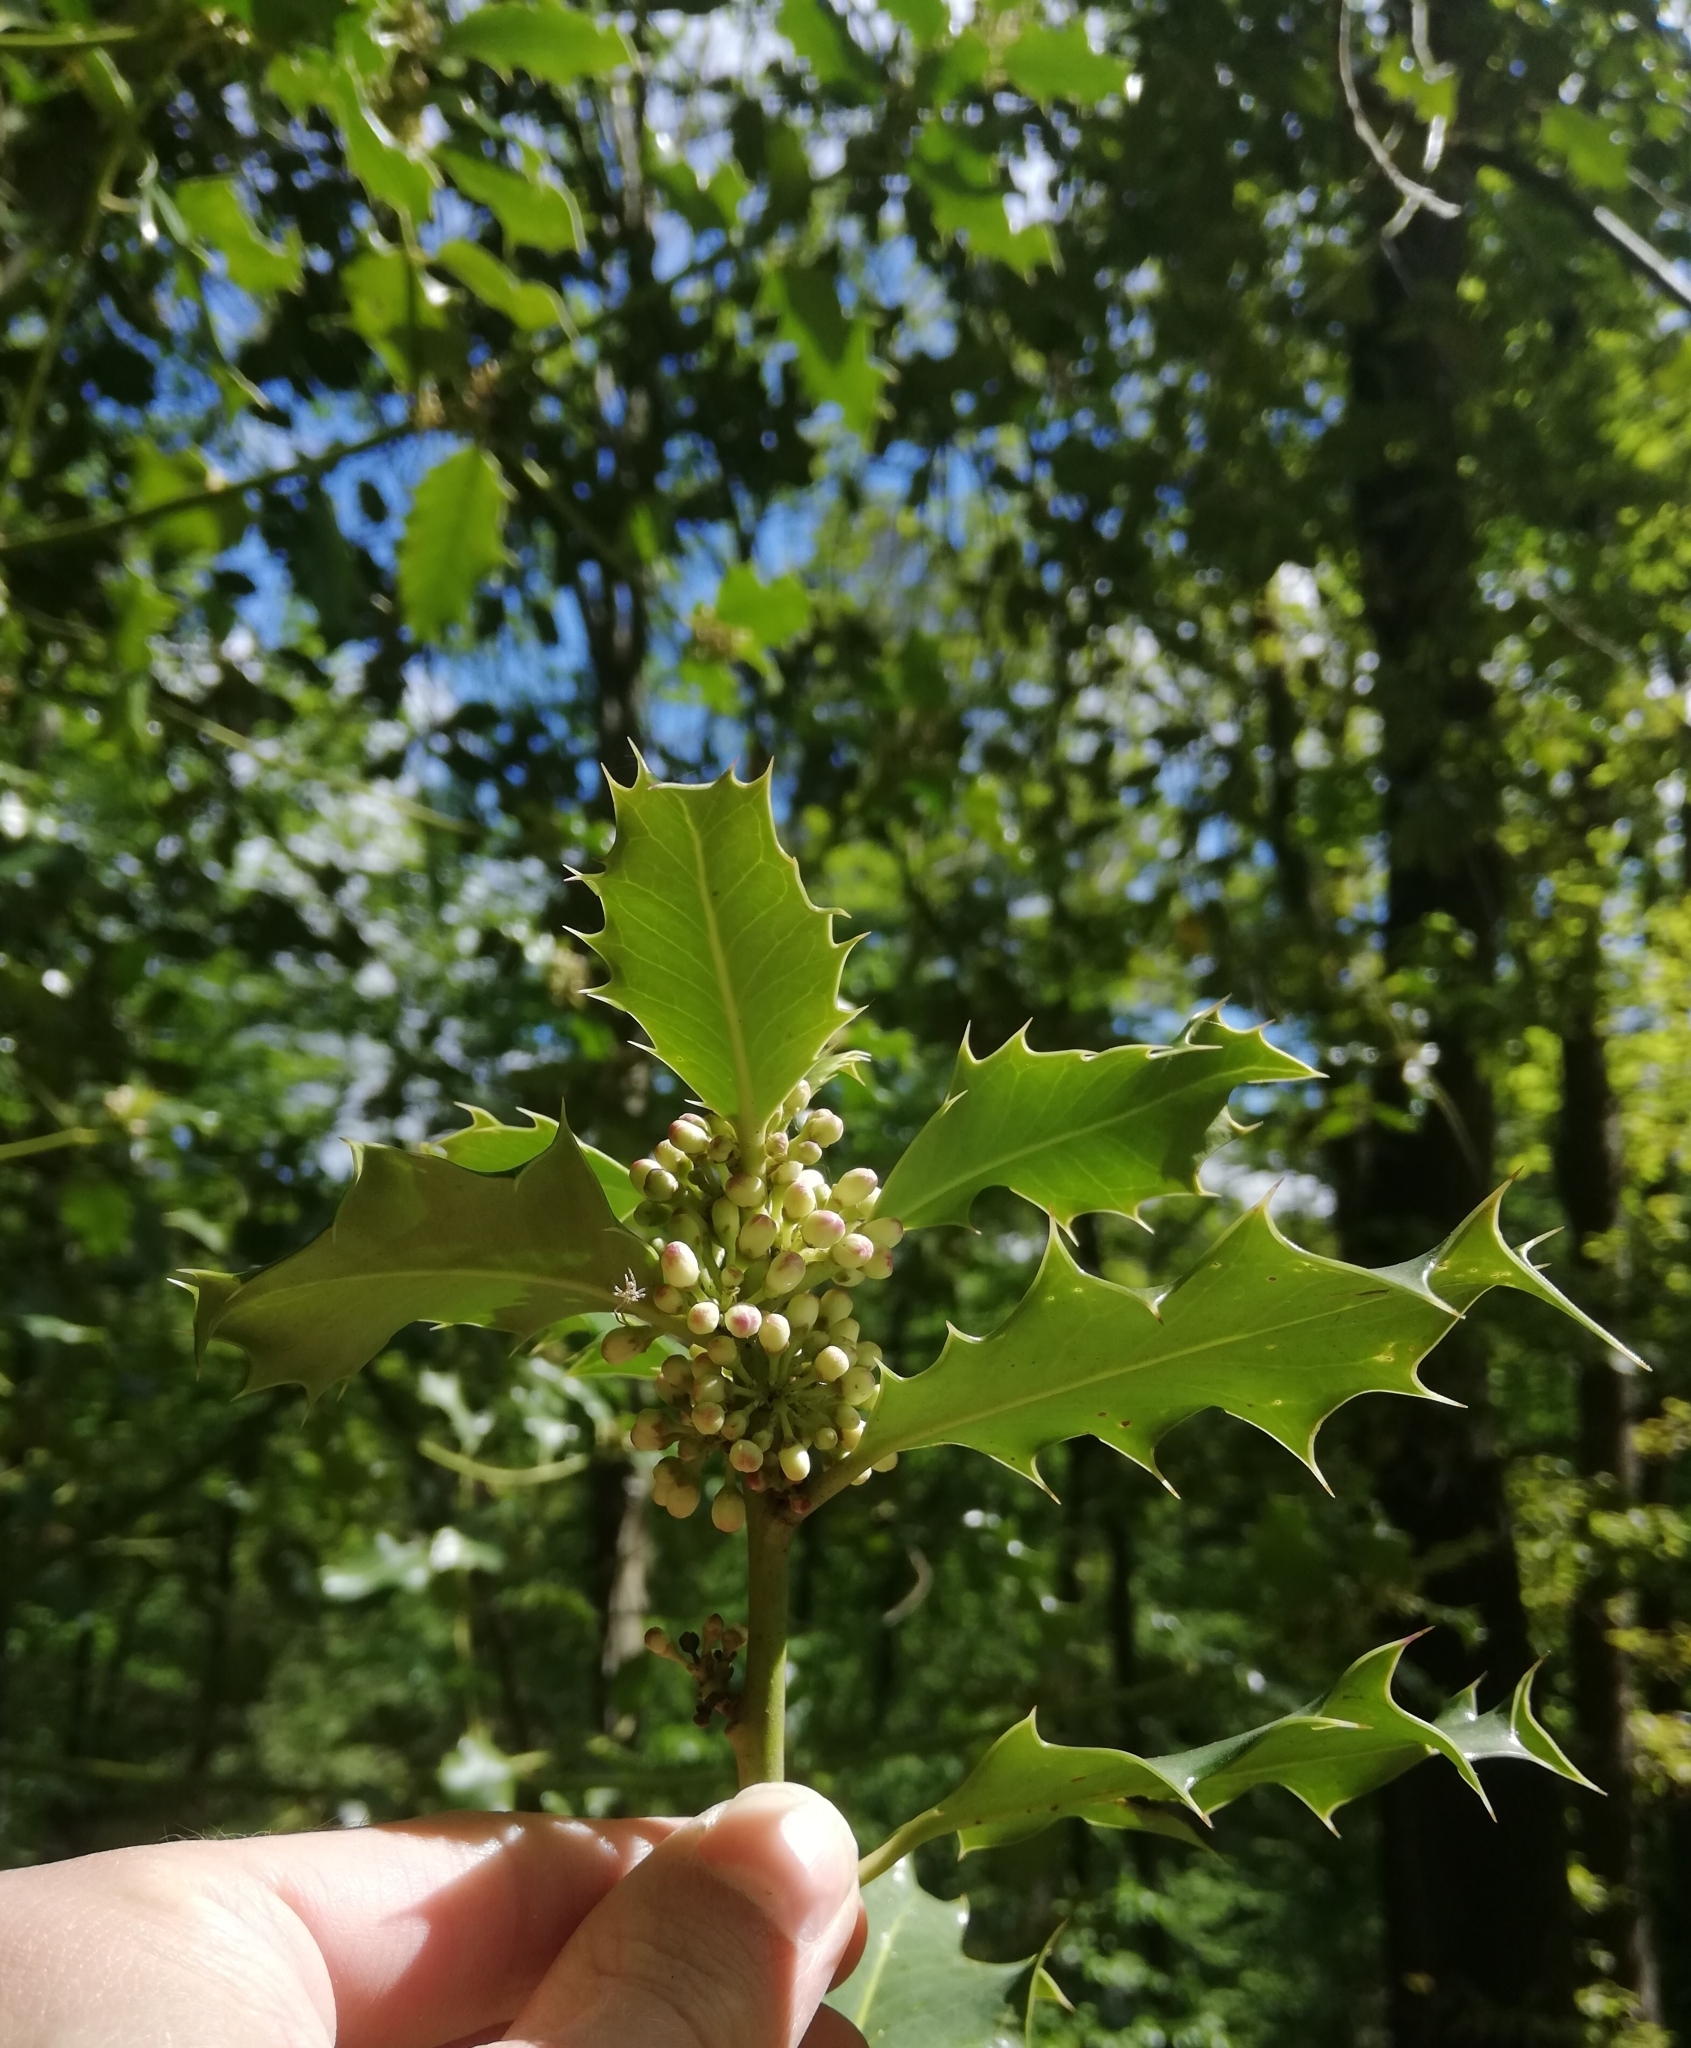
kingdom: Plantae
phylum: Tracheophyta
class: Magnoliopsida
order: Aquifoliales
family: Aquifoliaceae
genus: Ilex
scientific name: Ilex aquifolium
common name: English holly
